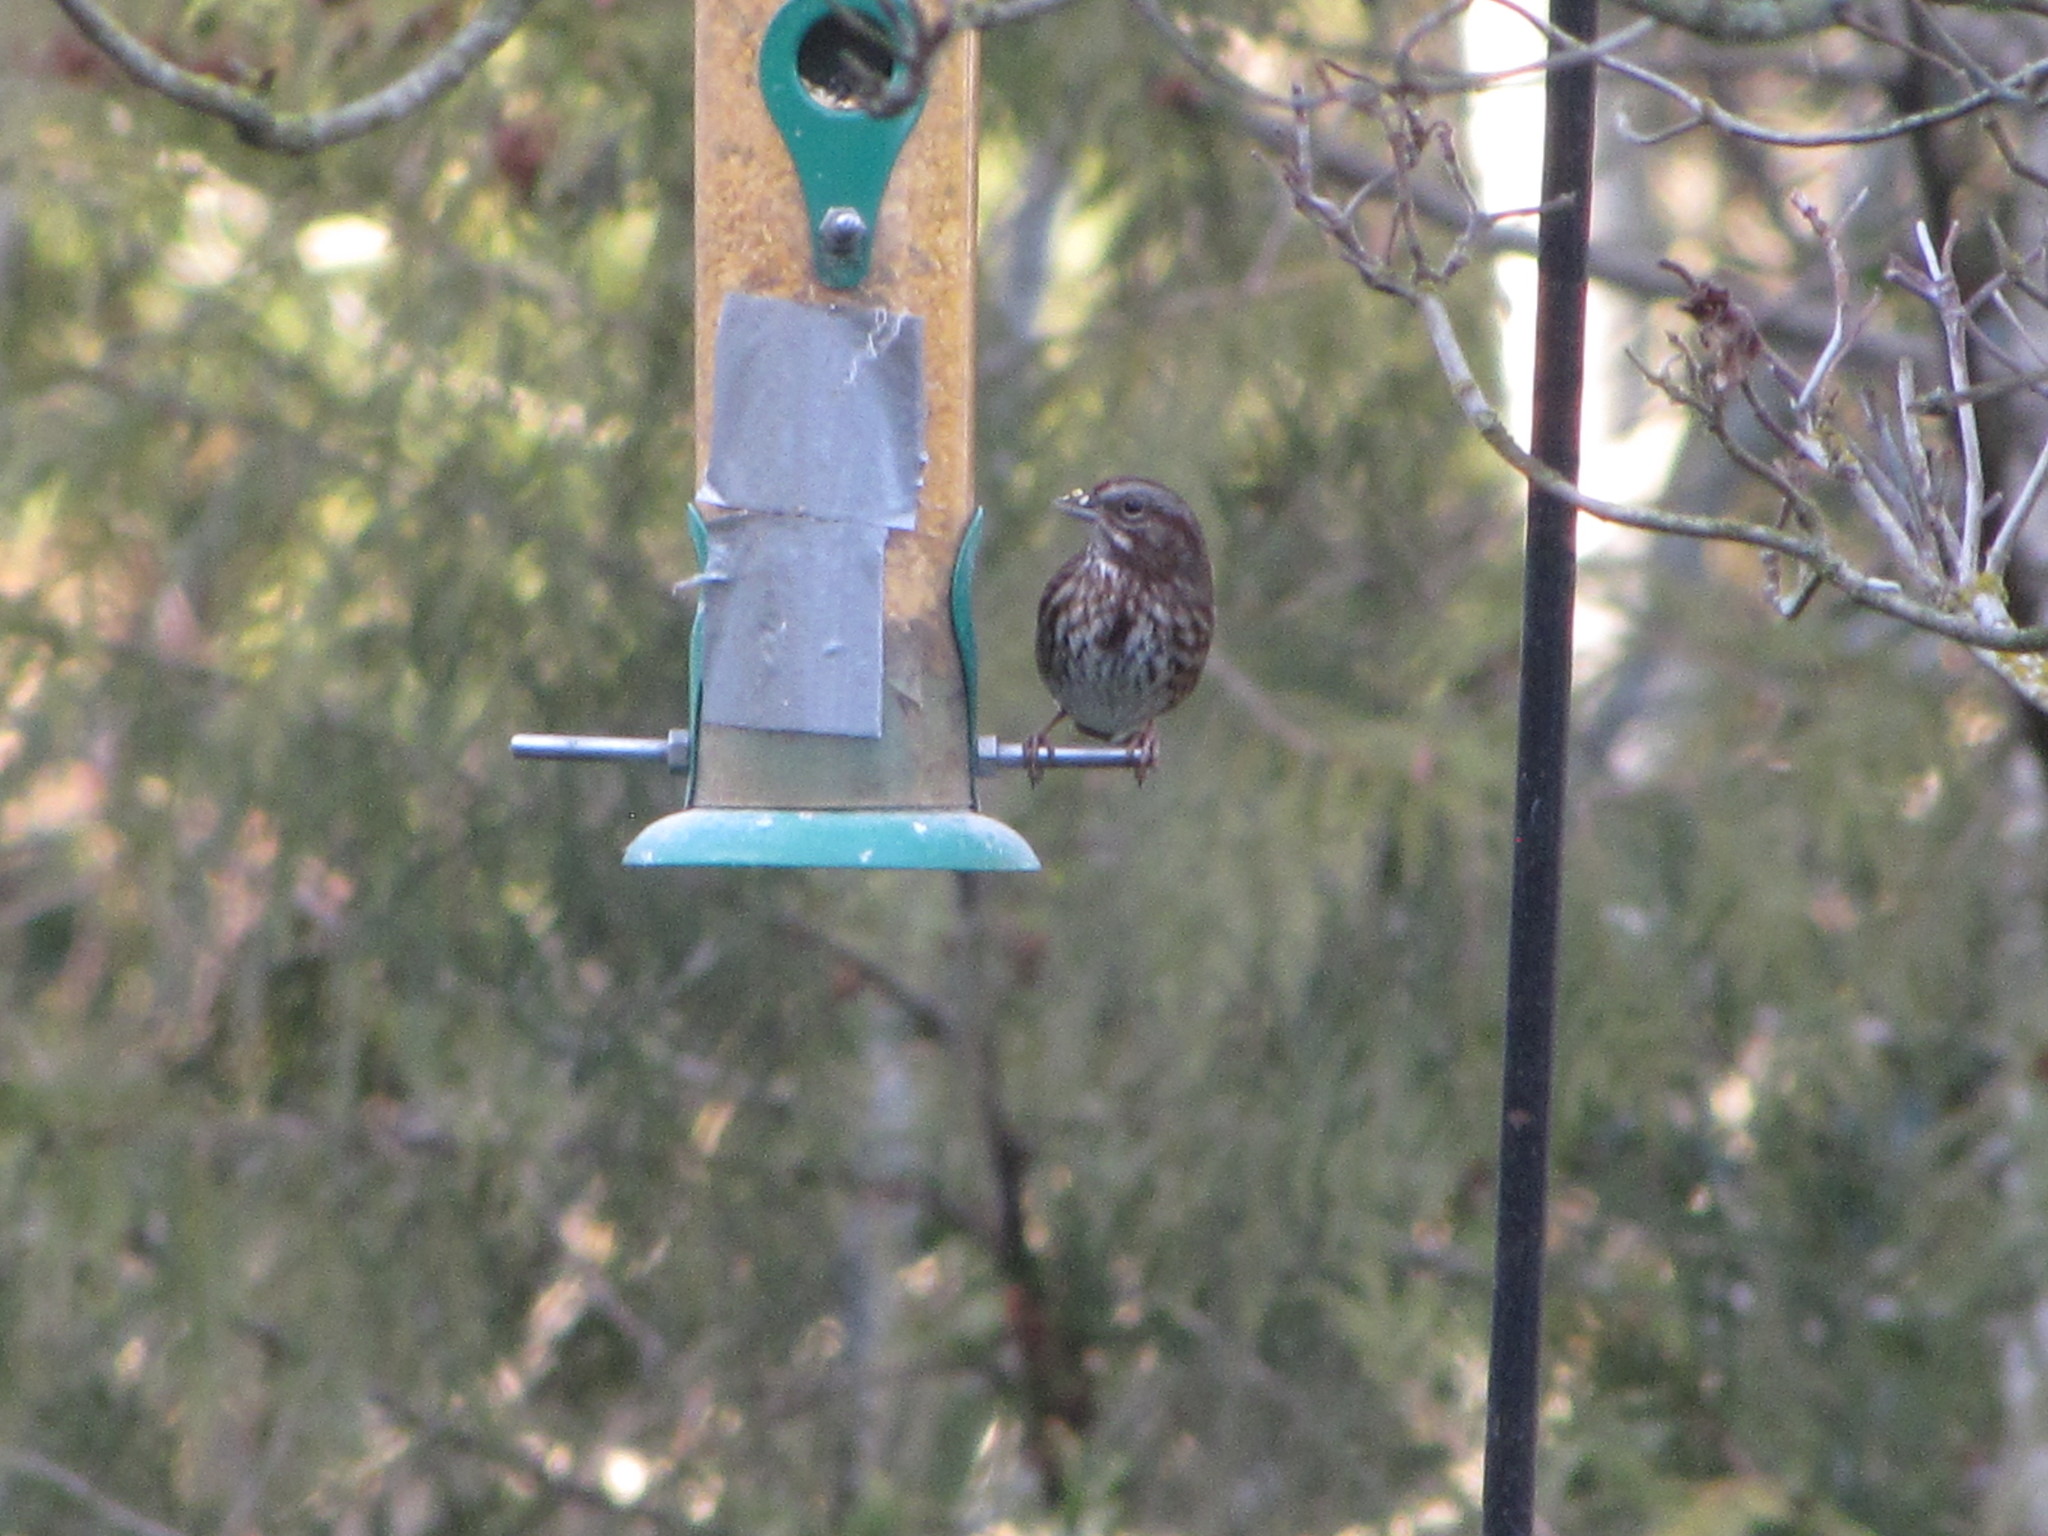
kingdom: Animalia
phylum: Chordata
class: Aves
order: Passeriformes
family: Passerellidae
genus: Melospiza
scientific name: Melospiza melodia
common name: Song sparrow
